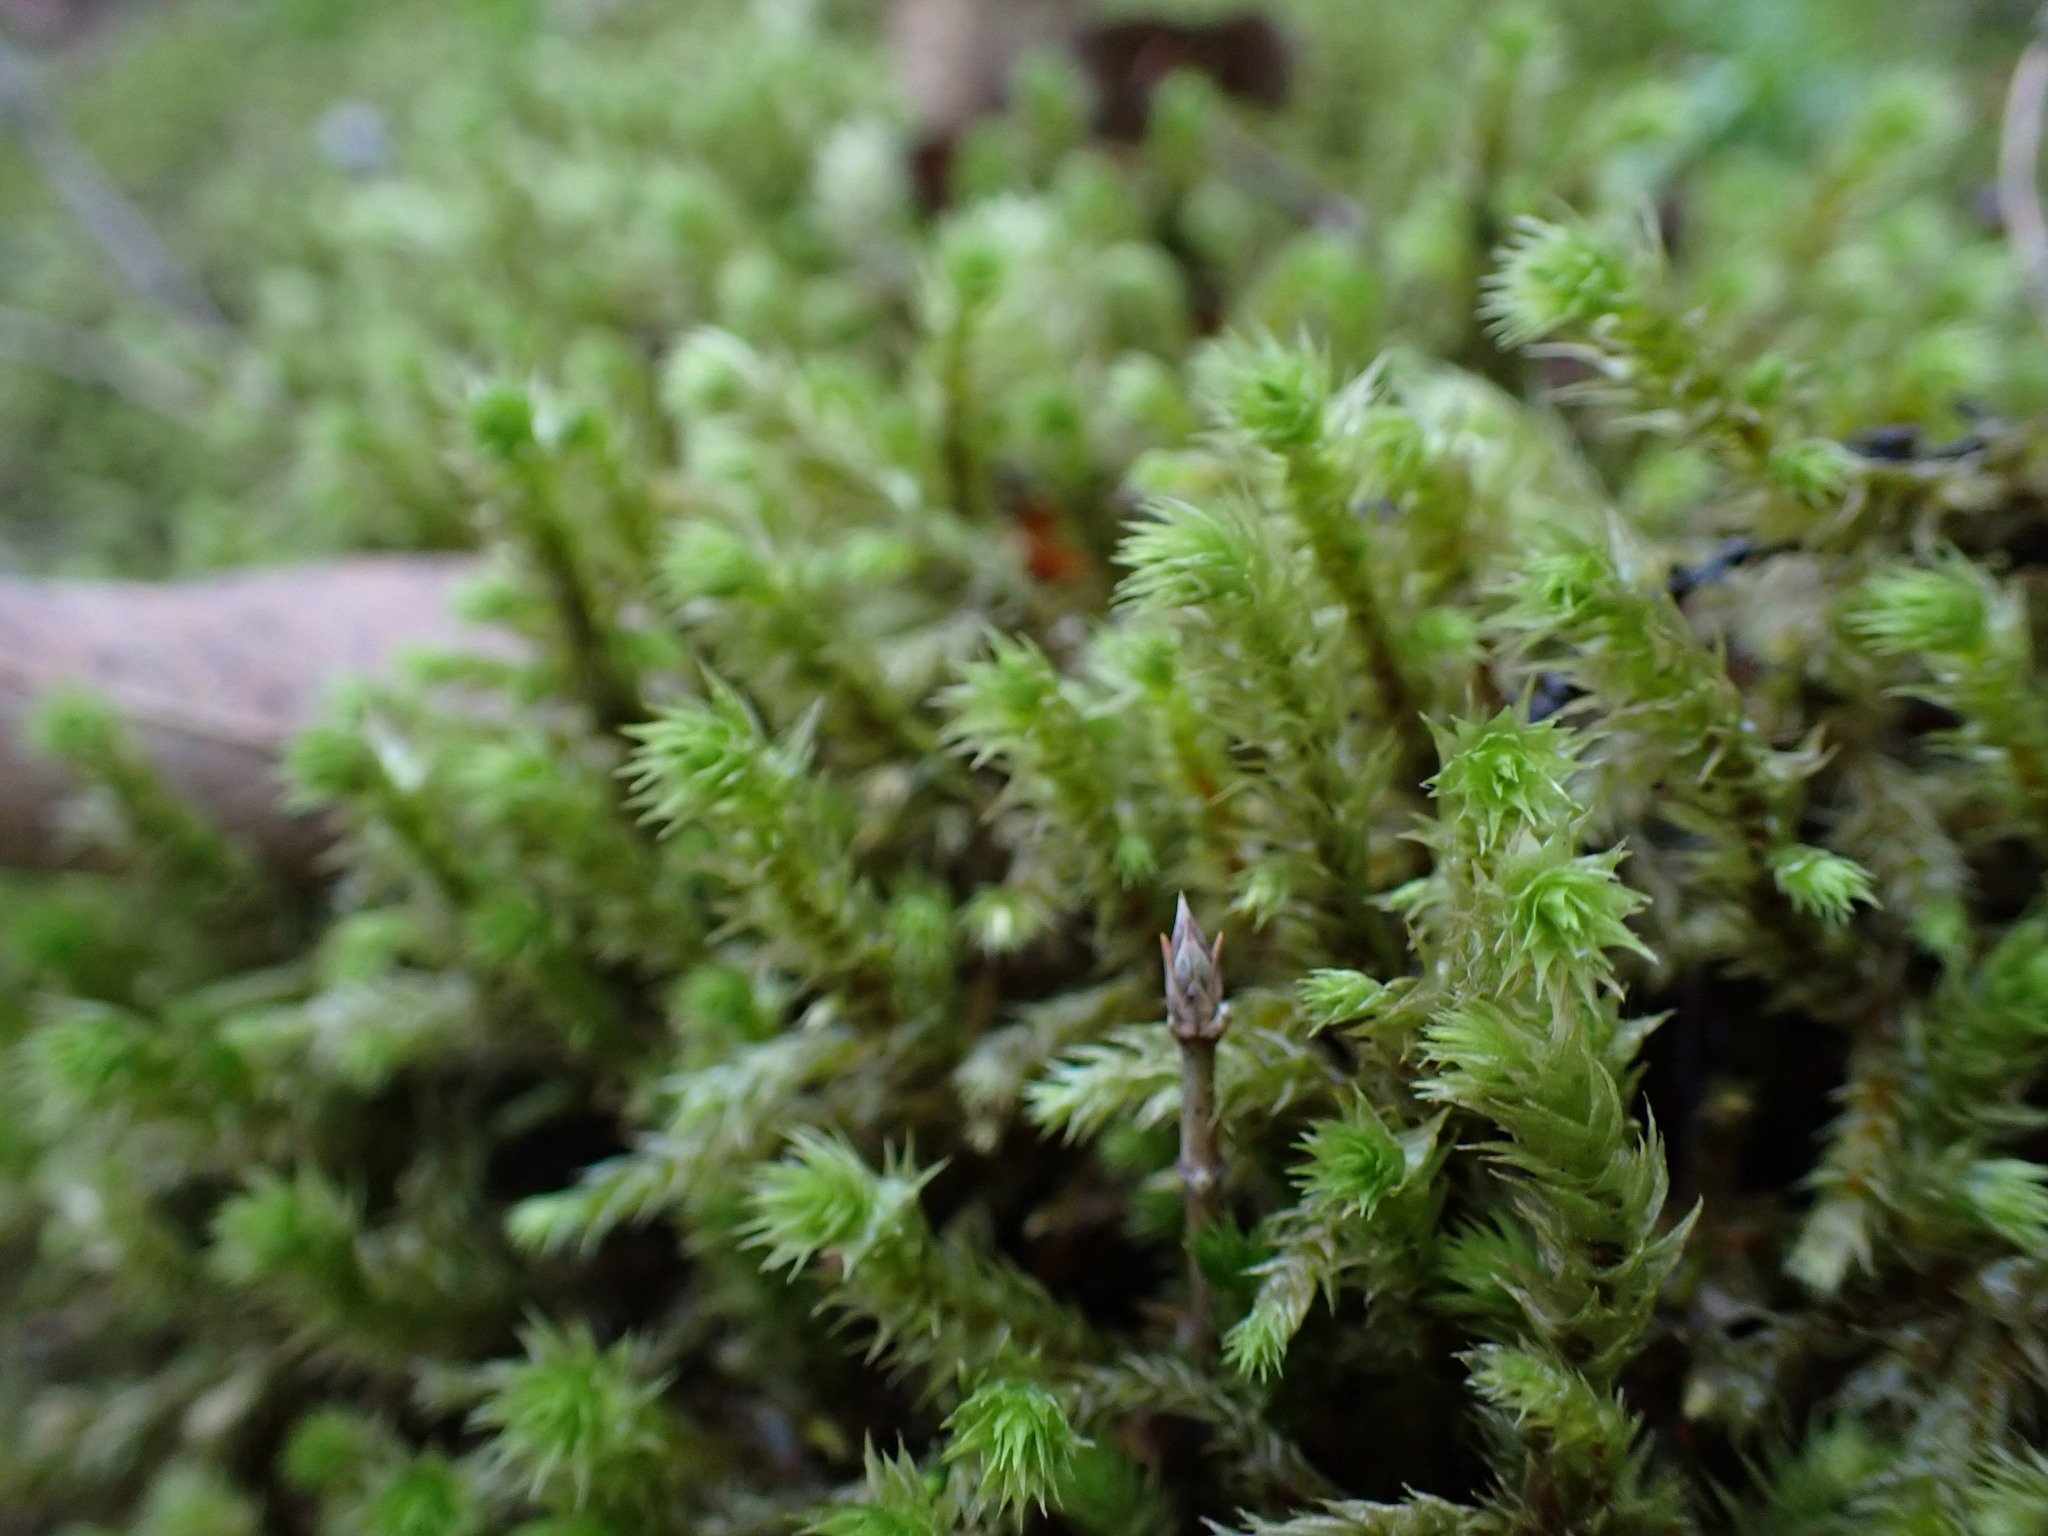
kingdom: Plantae
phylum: Bryophyta
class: Bryopsida
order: Hypnales
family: Hylocomiaceae
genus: Hylocomiadelphus
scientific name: Hylocomiadelphus triquetrus
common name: Rough goose neck moss
